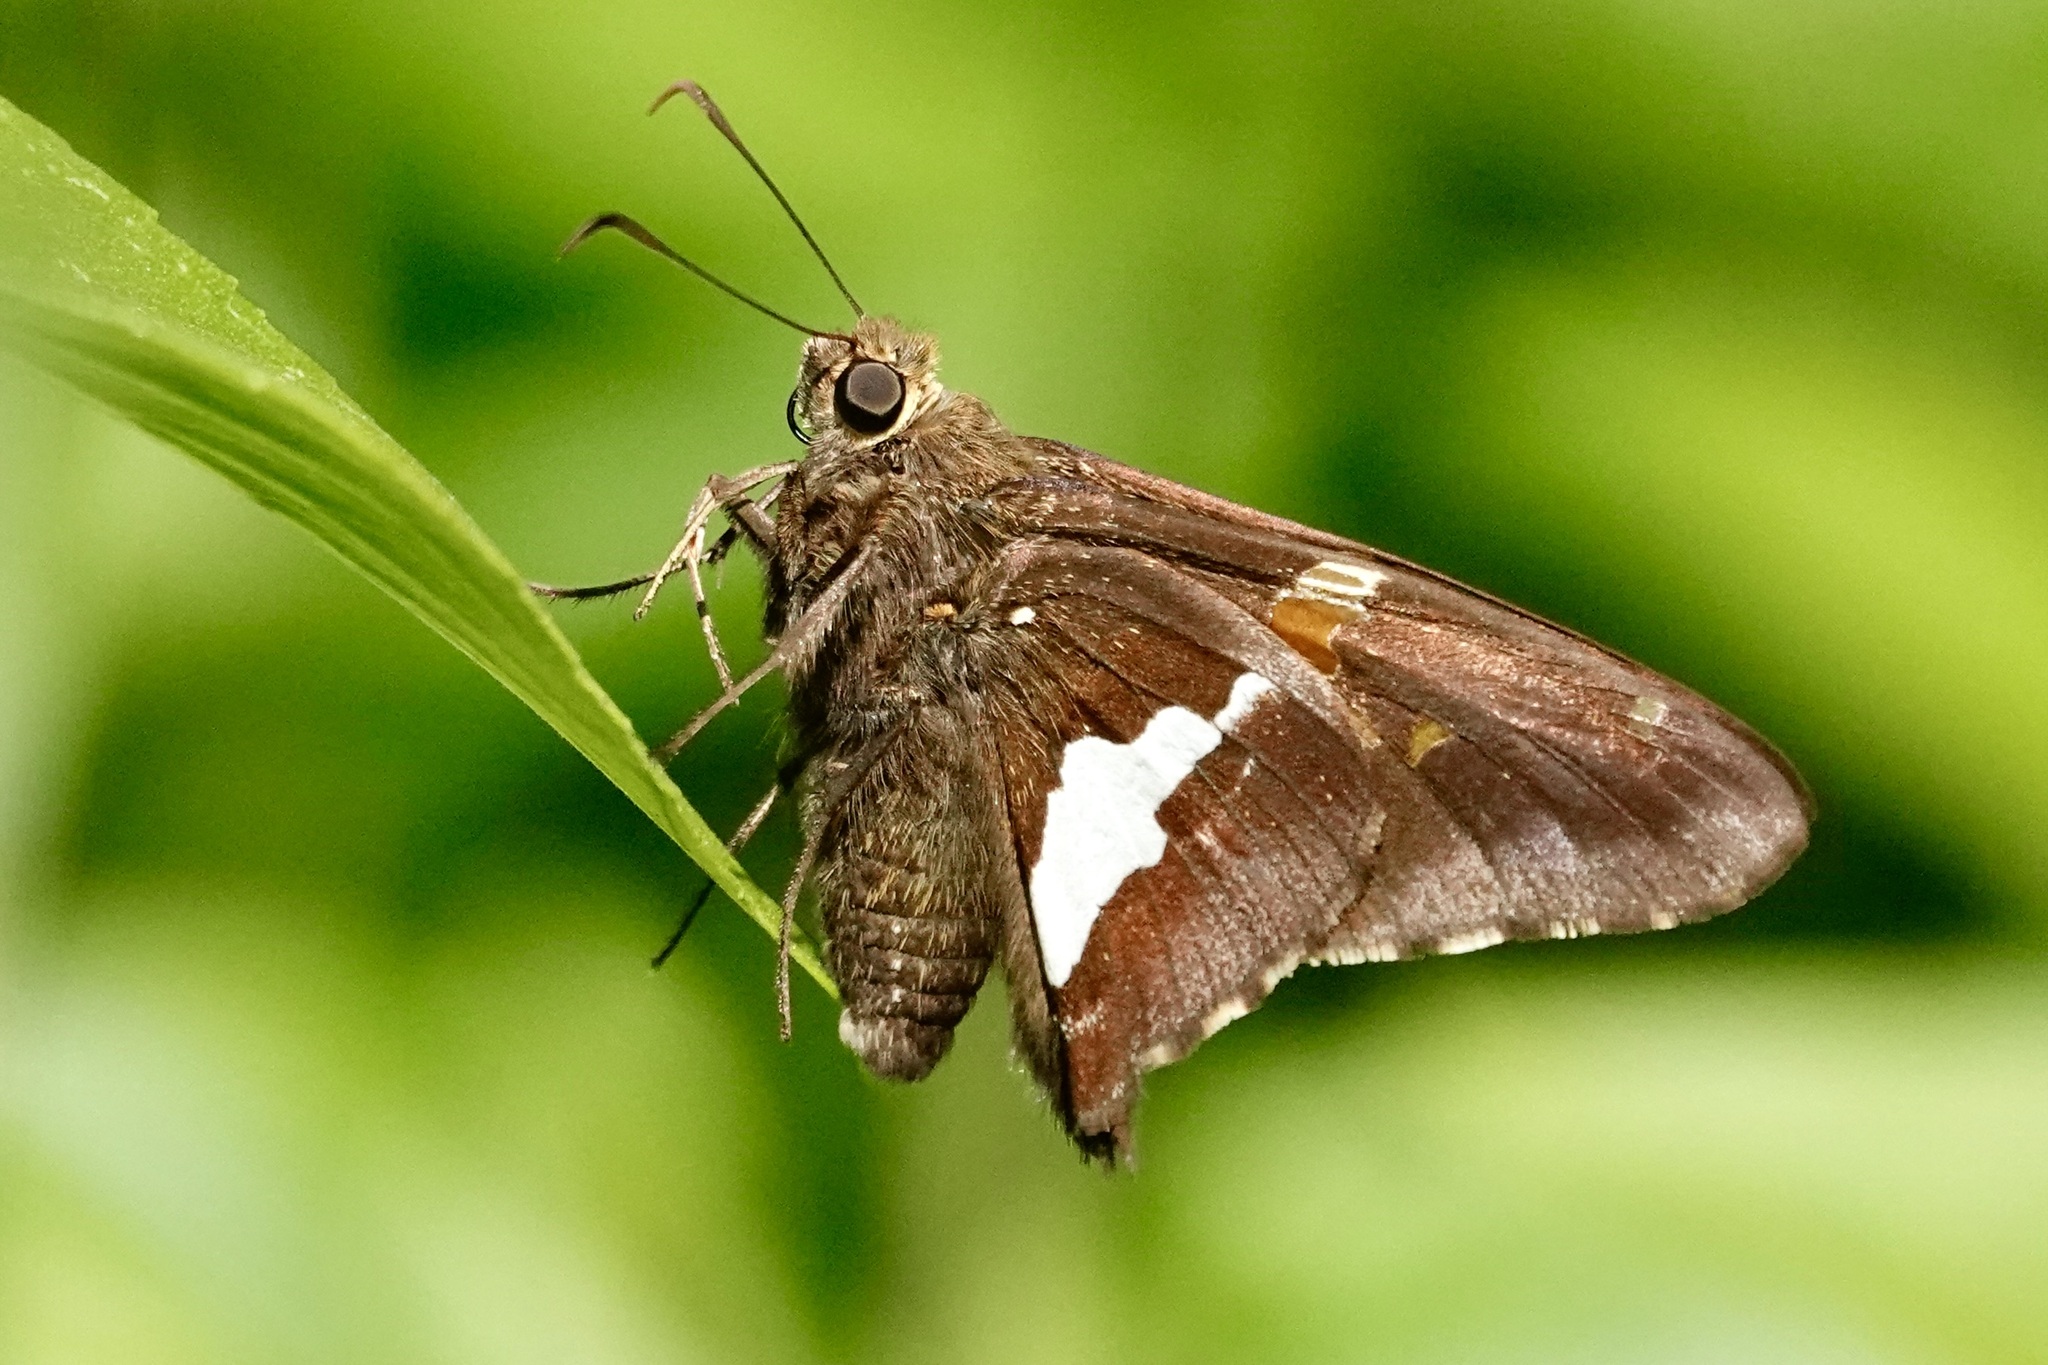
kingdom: Animalia
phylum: Arthropoda
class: Insecta
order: Lepidoptera
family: Hesperiidae
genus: Epargyreus
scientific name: Epargyreus clarus
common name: Silver-spotted skipper
